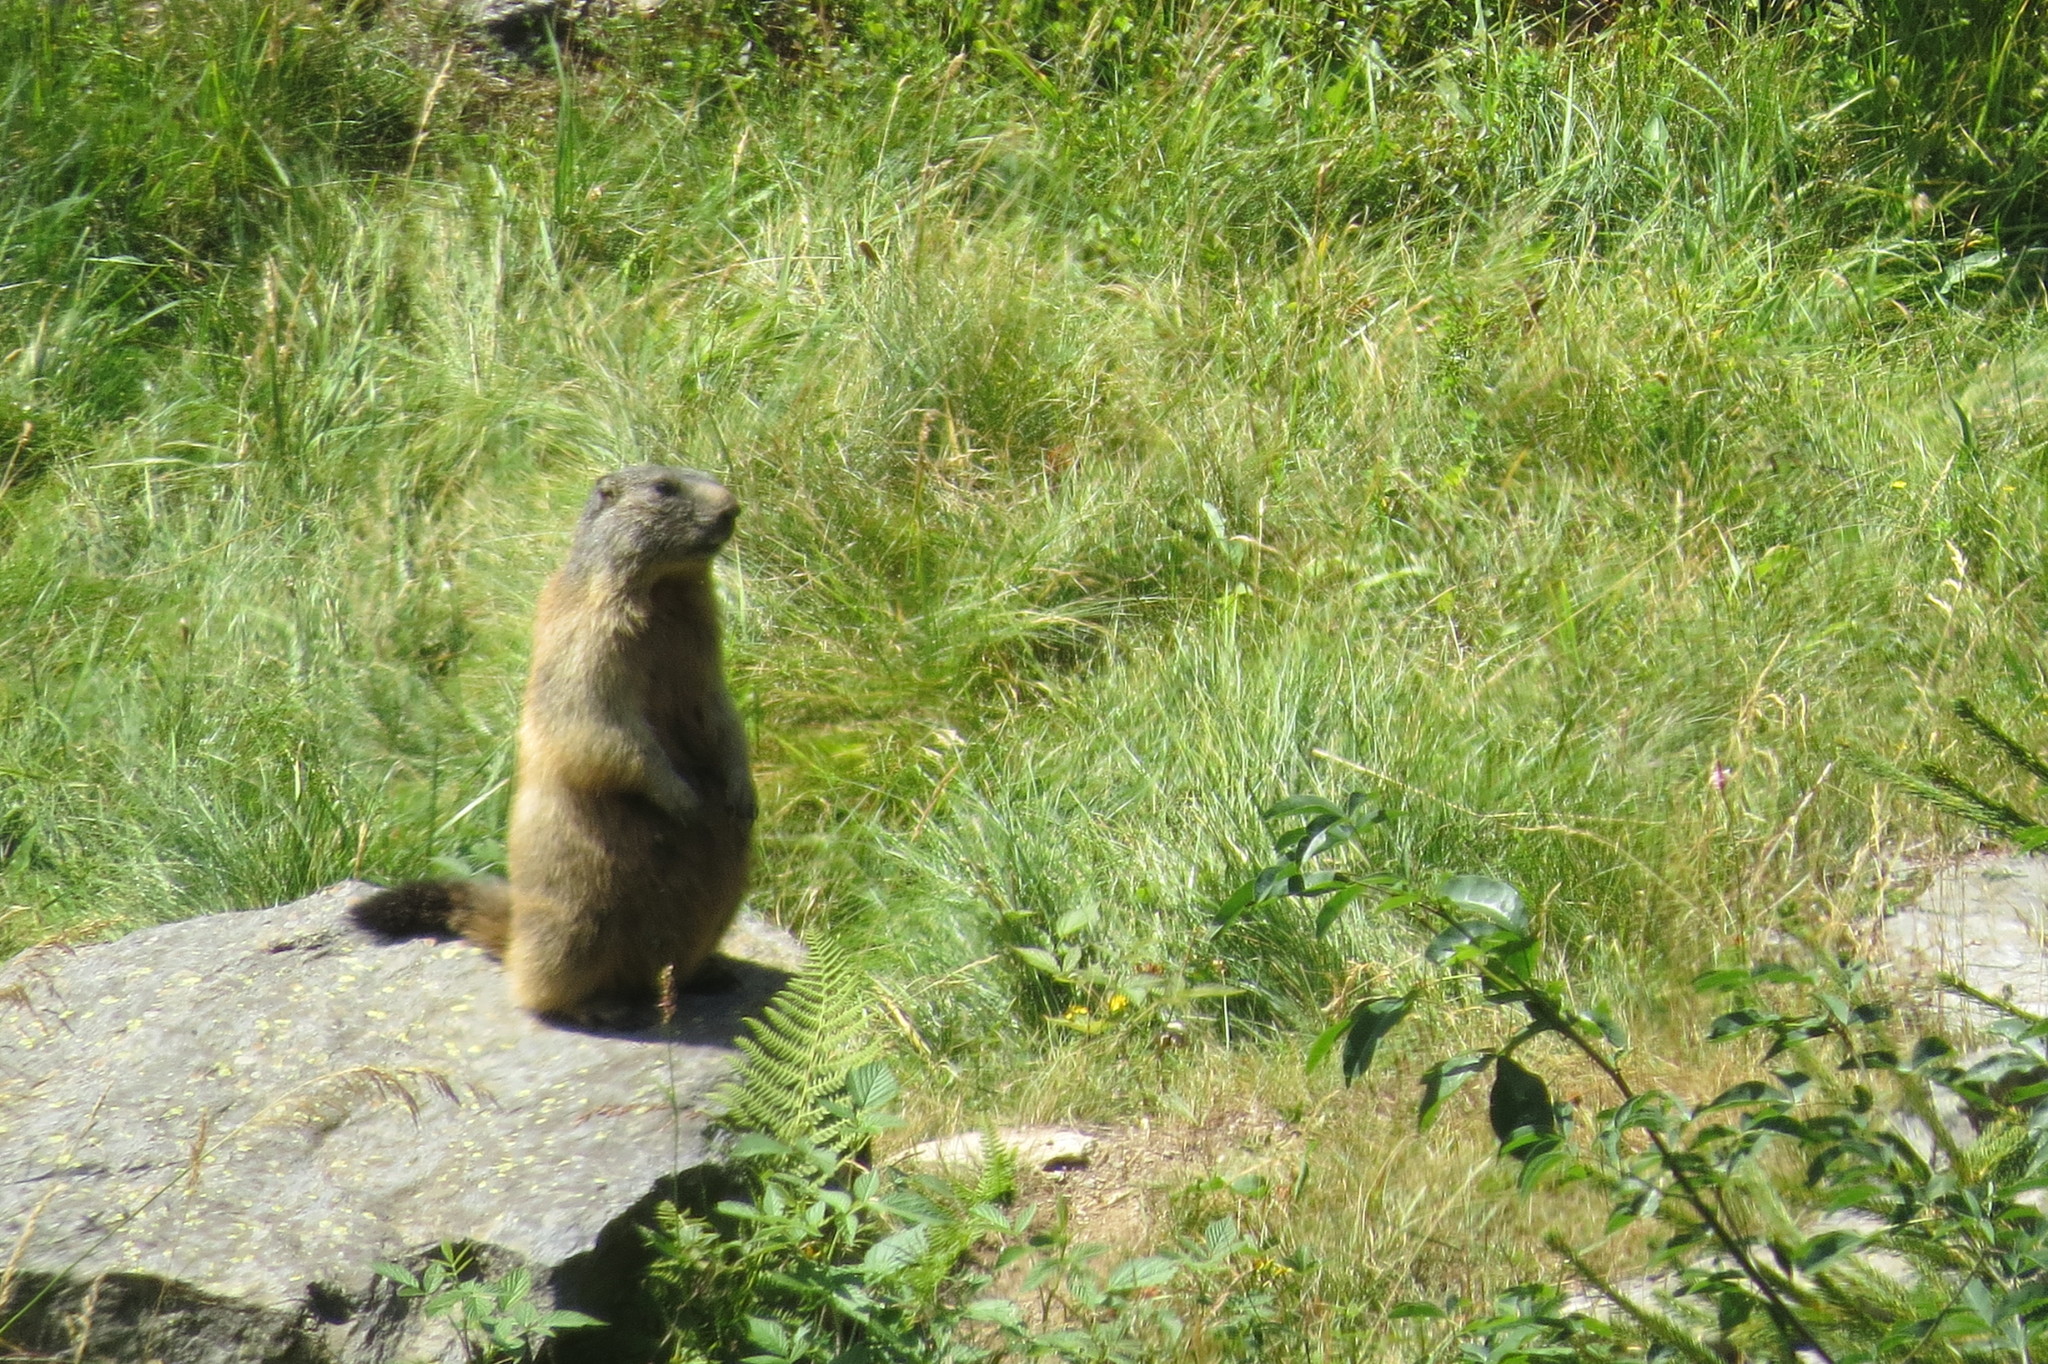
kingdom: Animalia
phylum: Chordata
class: Mammalia
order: Rodentia
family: Sciuridae
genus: Marmota
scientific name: Marmota marmota
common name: Alpine marmot
